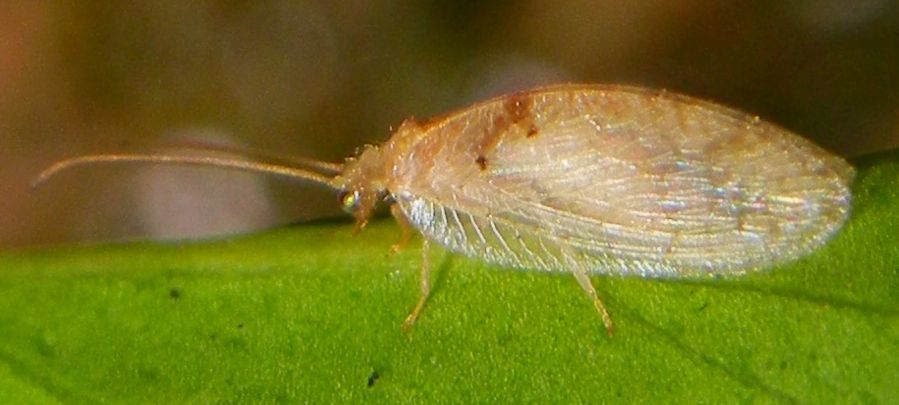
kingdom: Animalia
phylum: Arthropoda
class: Insecta
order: Neuroptera
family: Hemerobiidae
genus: Hemerobius
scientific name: Hemerobius lutescens
